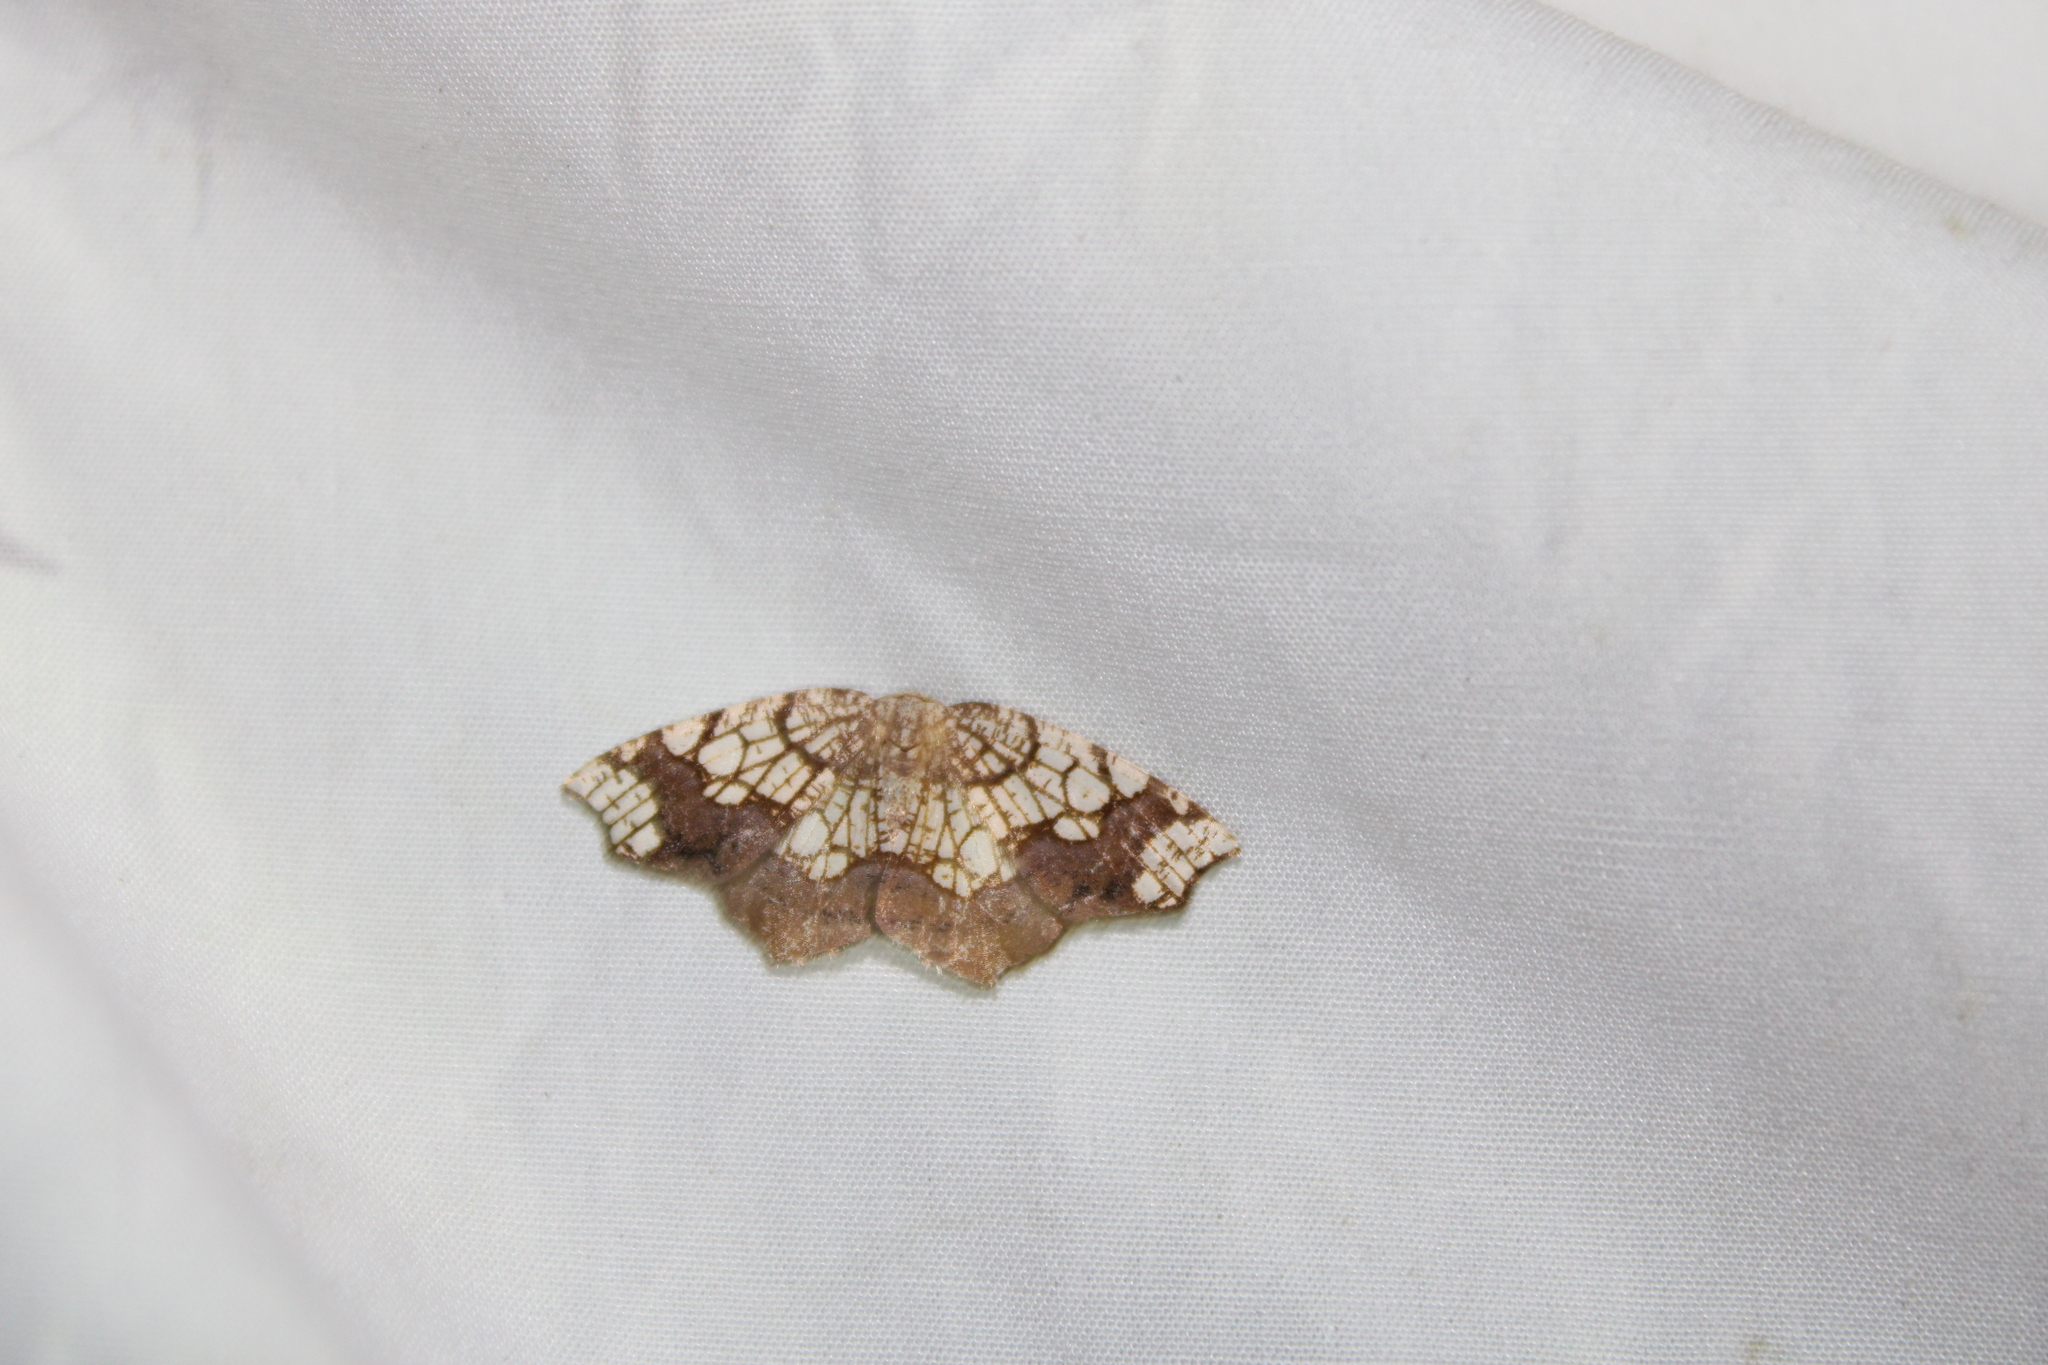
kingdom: Animalia
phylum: Arthropoda
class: Insecta
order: Lepidoptera
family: Geometridae
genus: Nematocampa
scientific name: Nematocampa resistaria
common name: Horned spanworm moth
